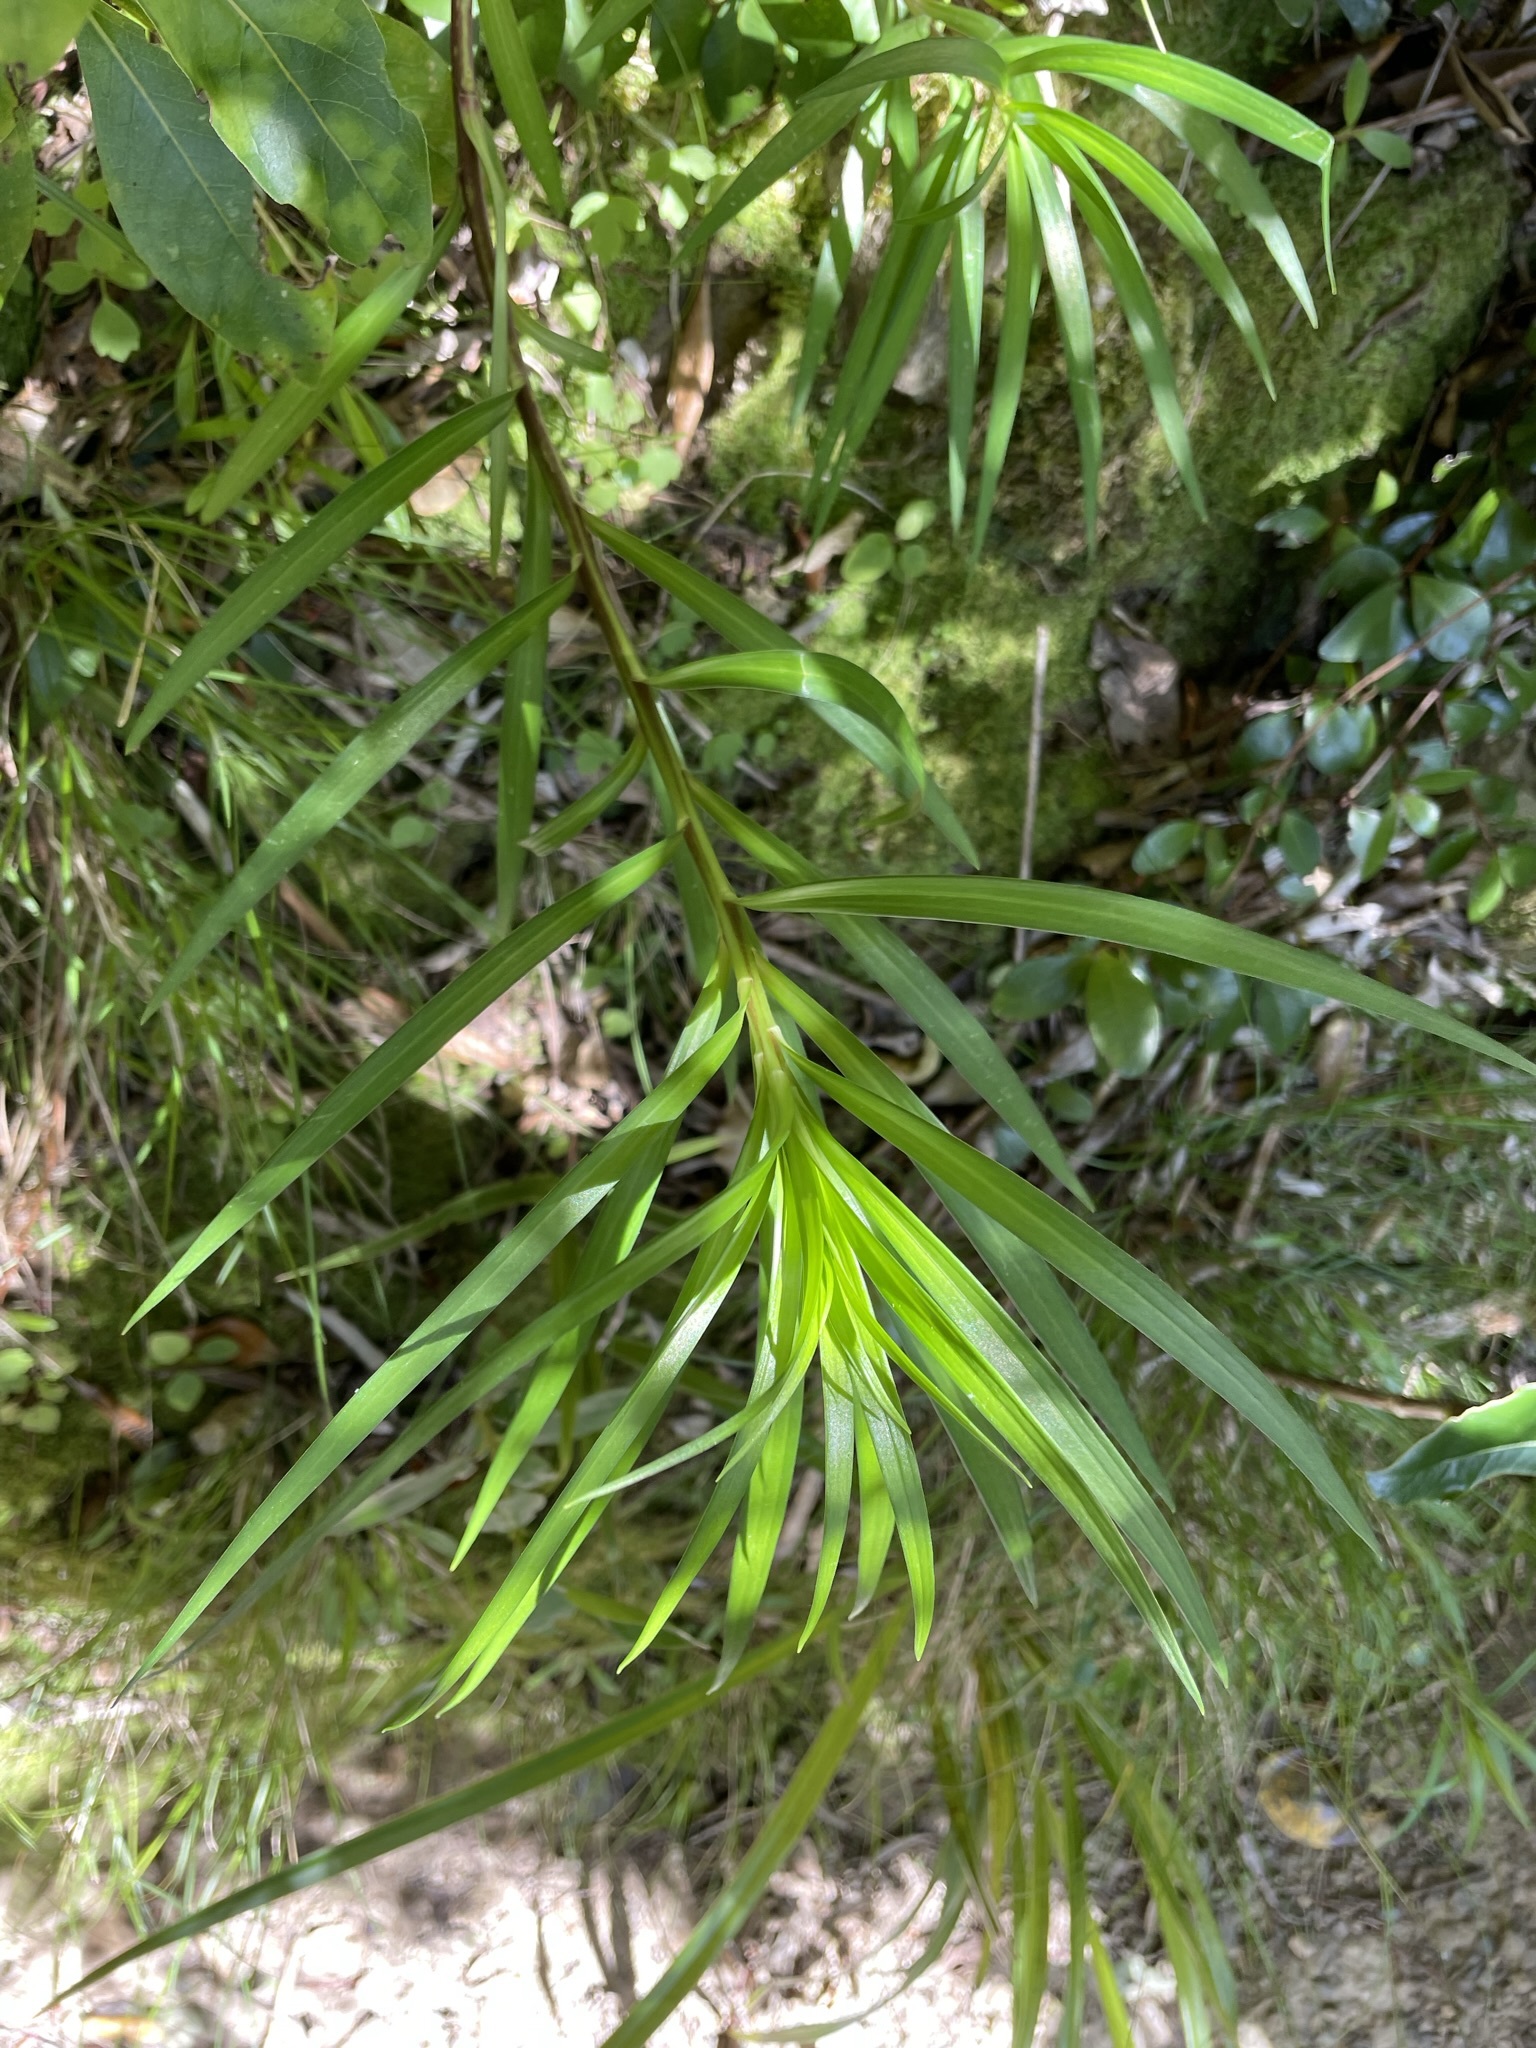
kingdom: Plantae
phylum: Tracheophyta
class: Liliopsida
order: Liliales
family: Liliaceae
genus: Lilium
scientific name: Lilium formosanum
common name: Formosa lily
